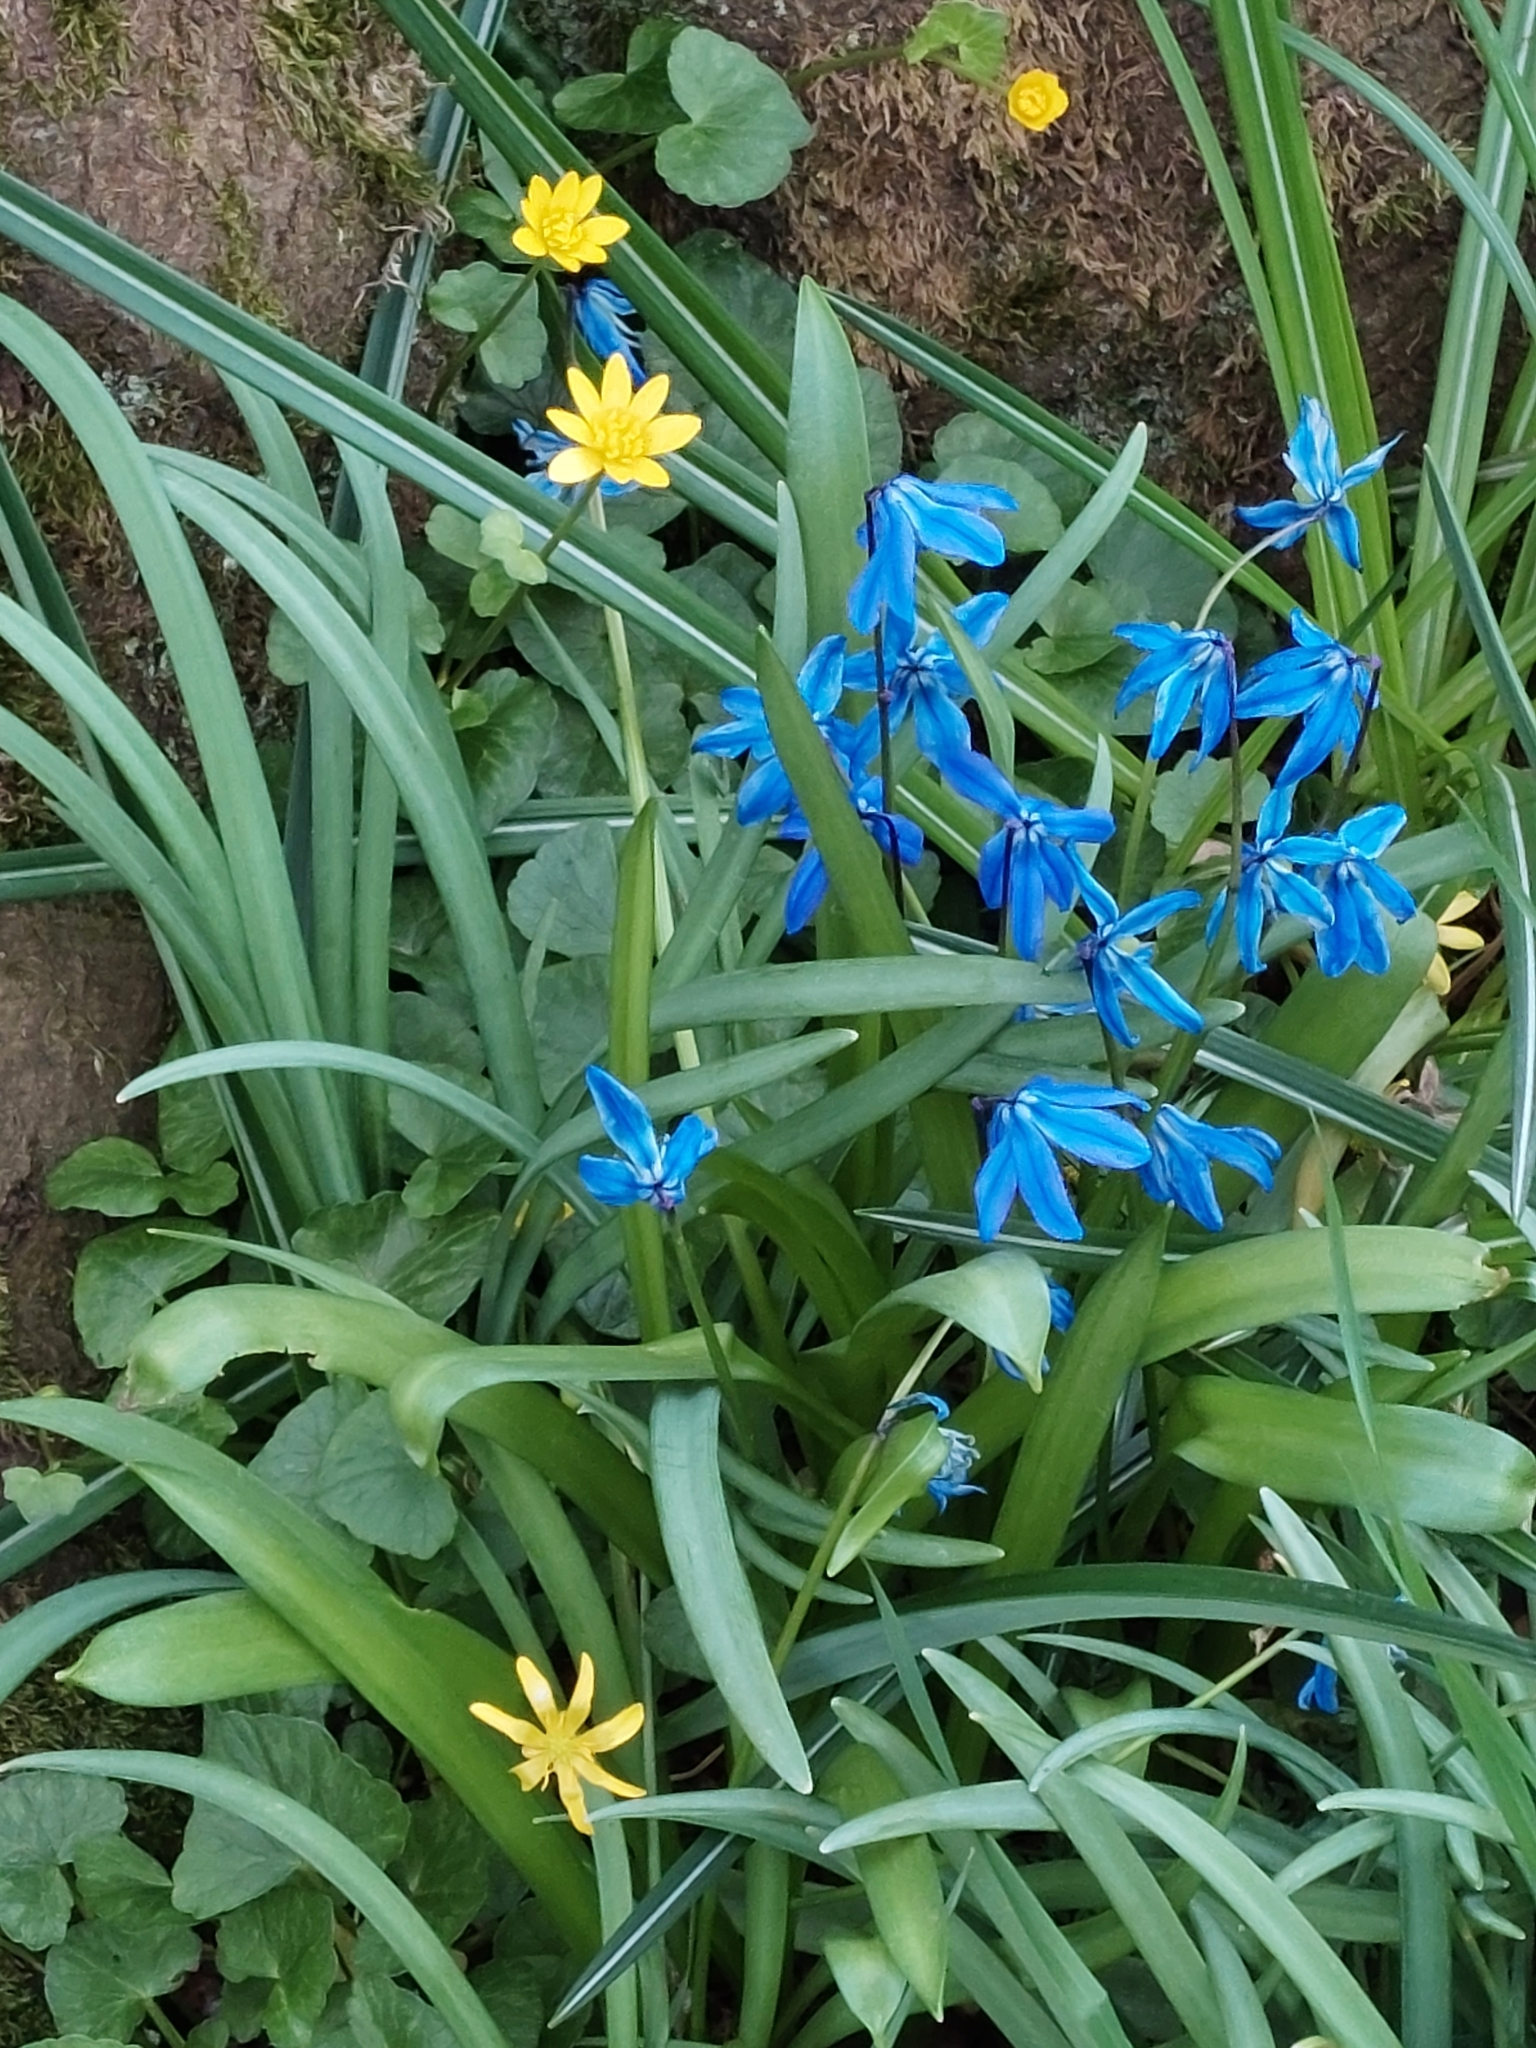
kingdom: Plantae
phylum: Tracheophyta
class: Liliopsida
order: Asparagales
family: Asparagaceae
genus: Scilla
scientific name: Scilla siberica
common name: Siberian squill
